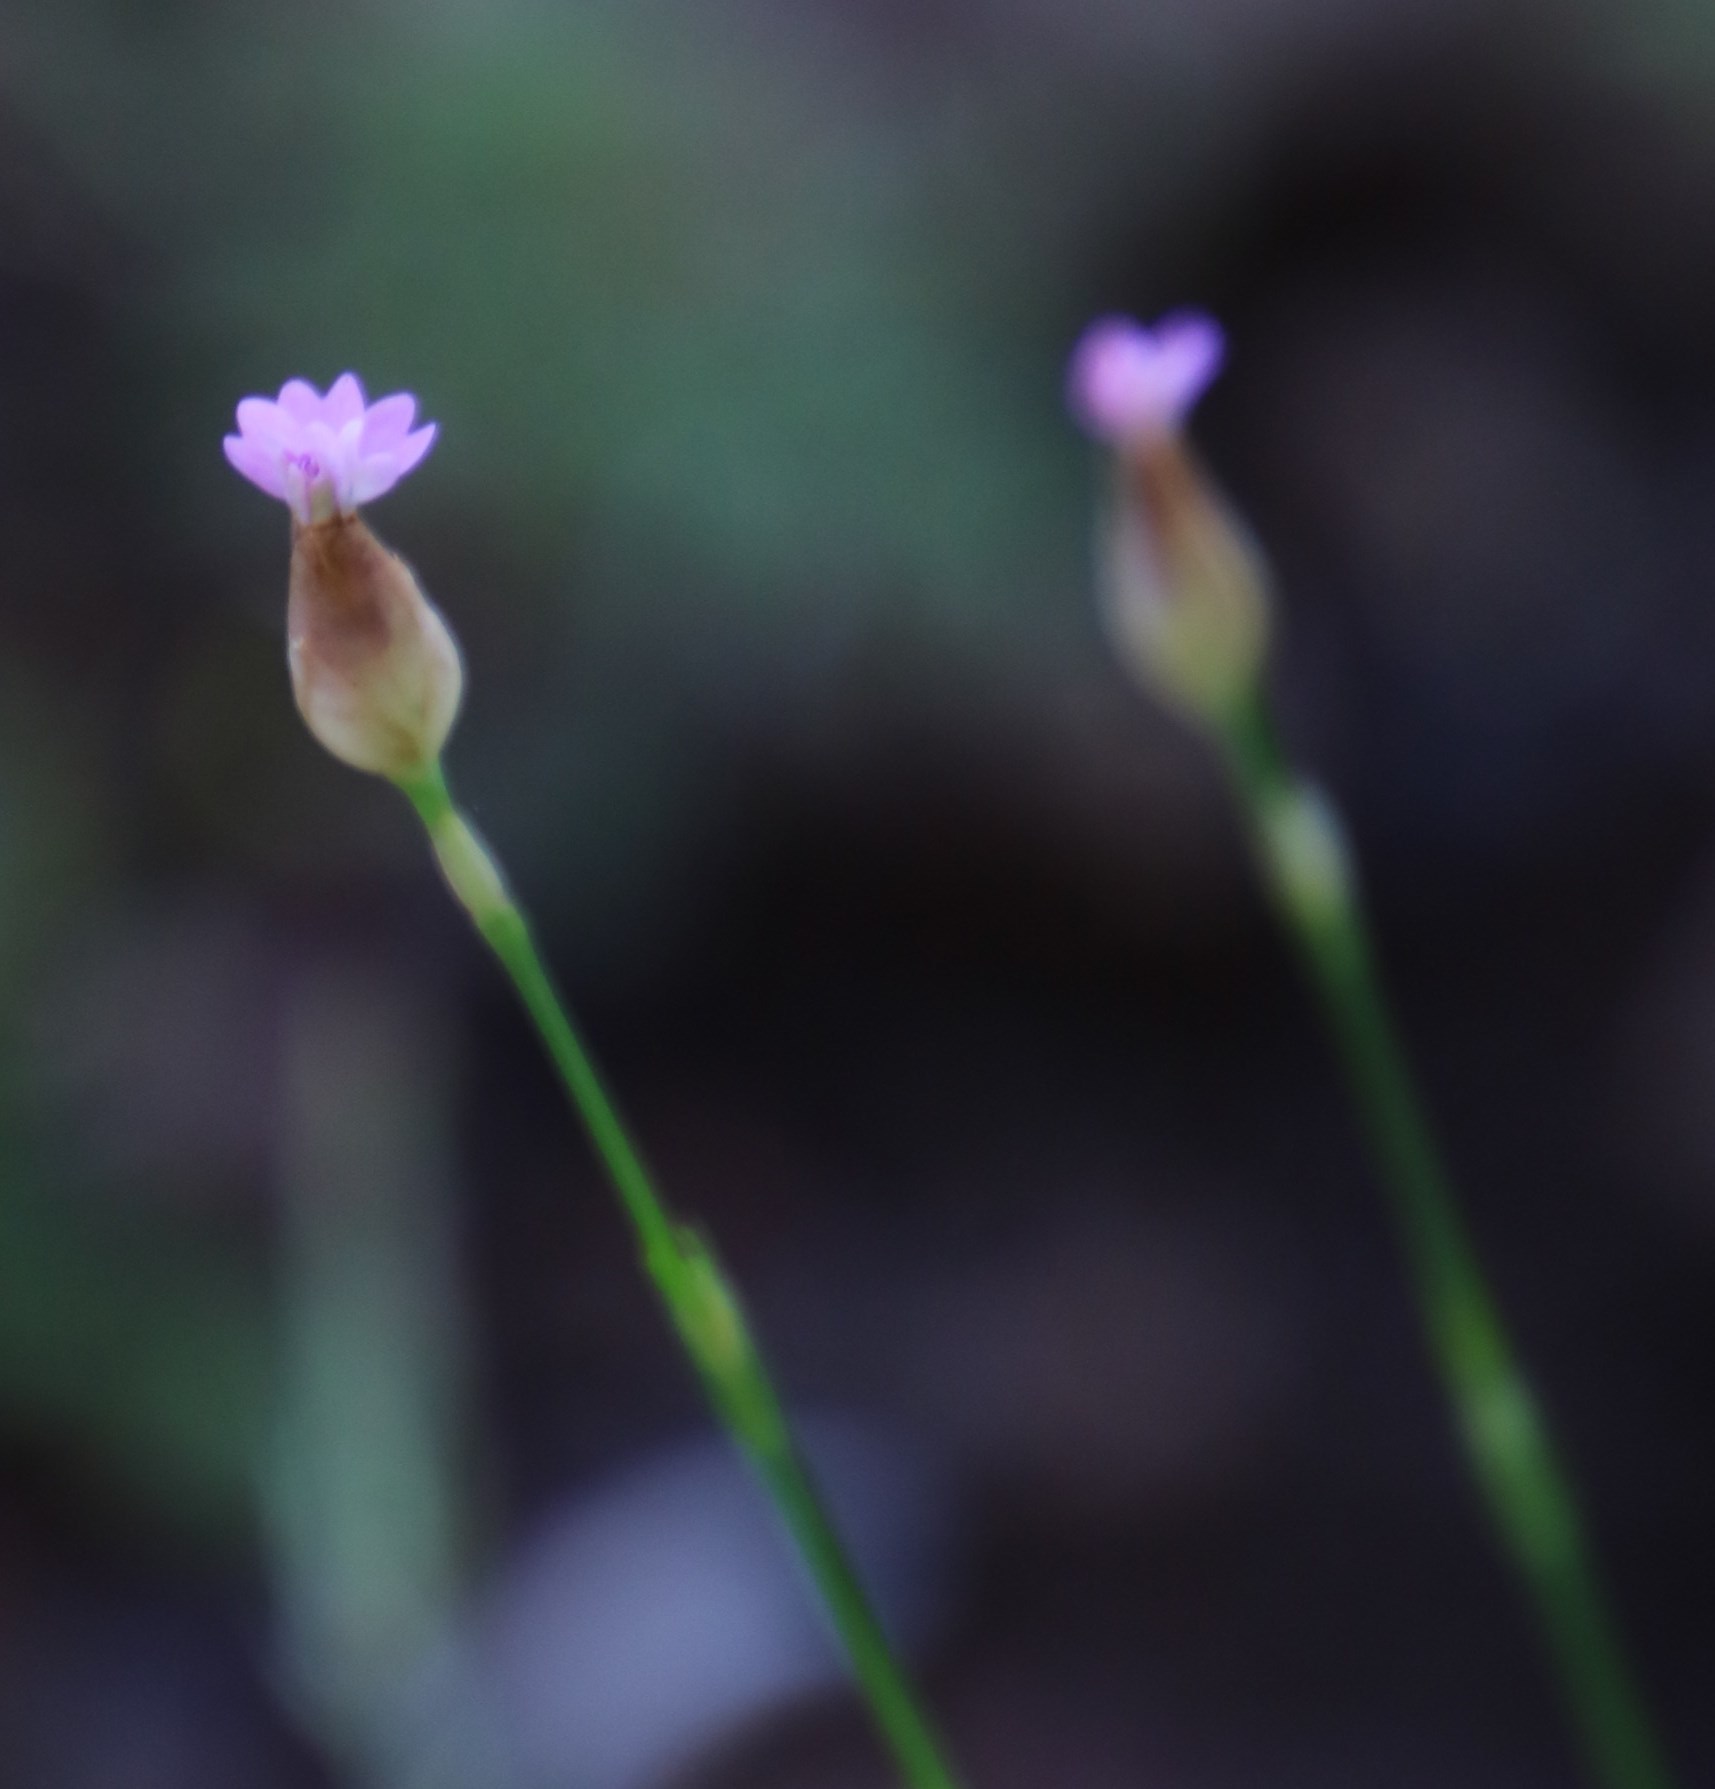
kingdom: Plantae
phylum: Tracheophyta
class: Magnoliopsida
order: Caryophyllales
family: Caryophyllaceae
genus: Petrorhagia
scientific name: Petrorhagia prolifera
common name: Proliferous pink
